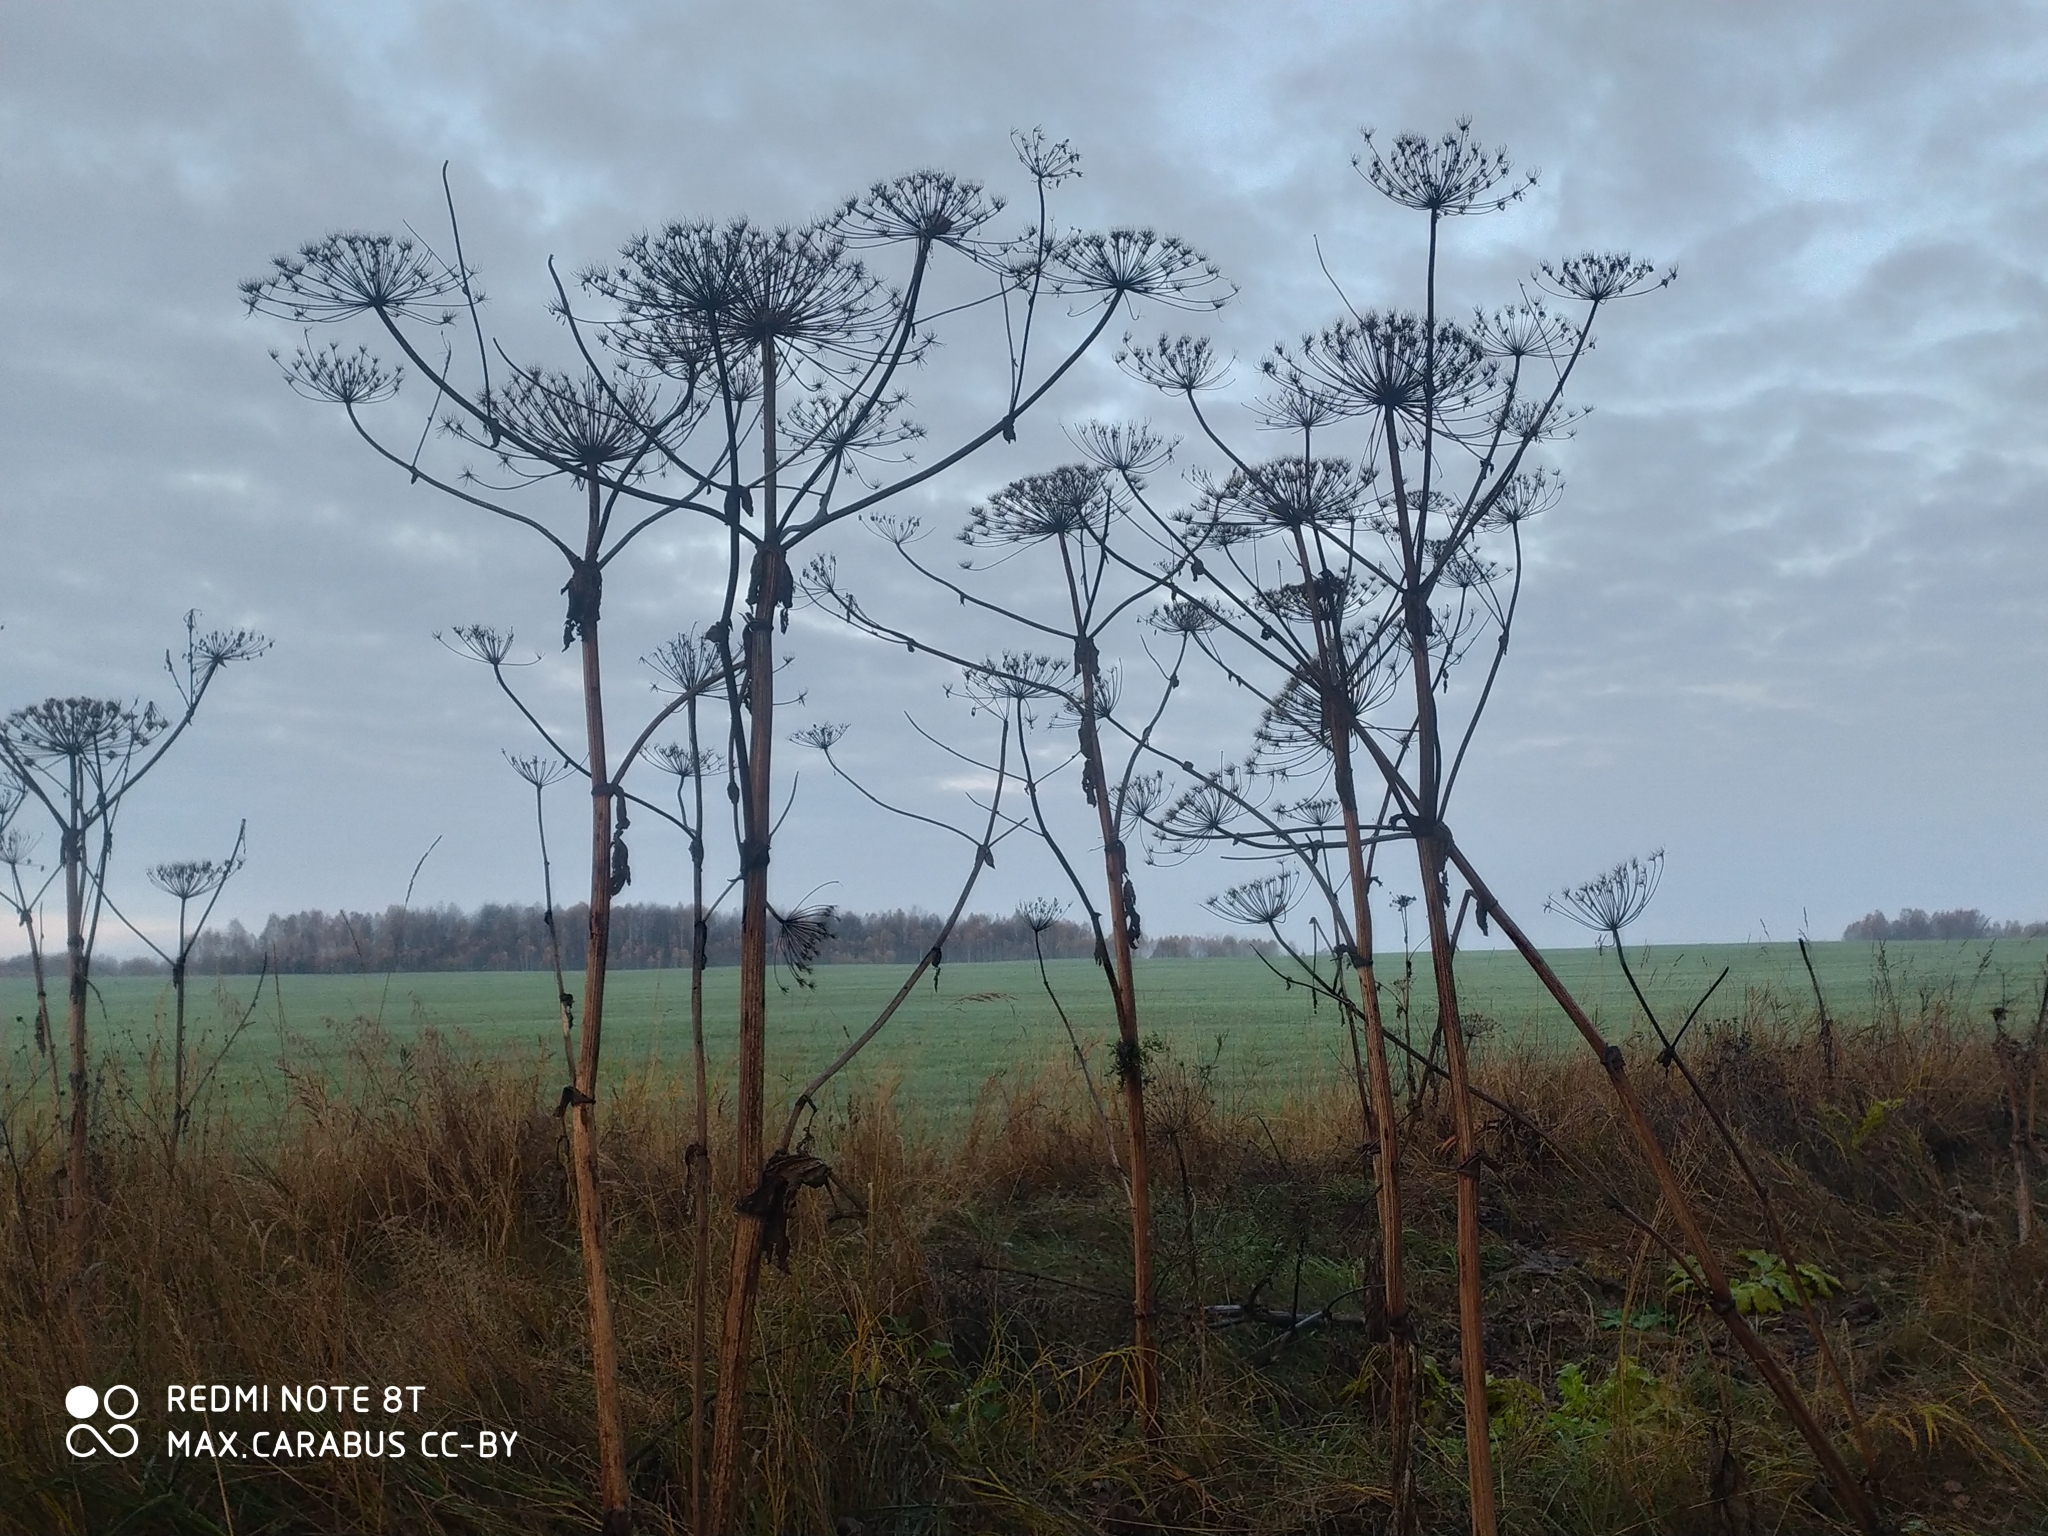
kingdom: Plantae
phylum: Tracheophyta
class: Magnoliopsida
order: Apiales
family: Apiaceae
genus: Heracleum
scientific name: Heracleum sosnowskyi
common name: Sosnowsky's hogweed
